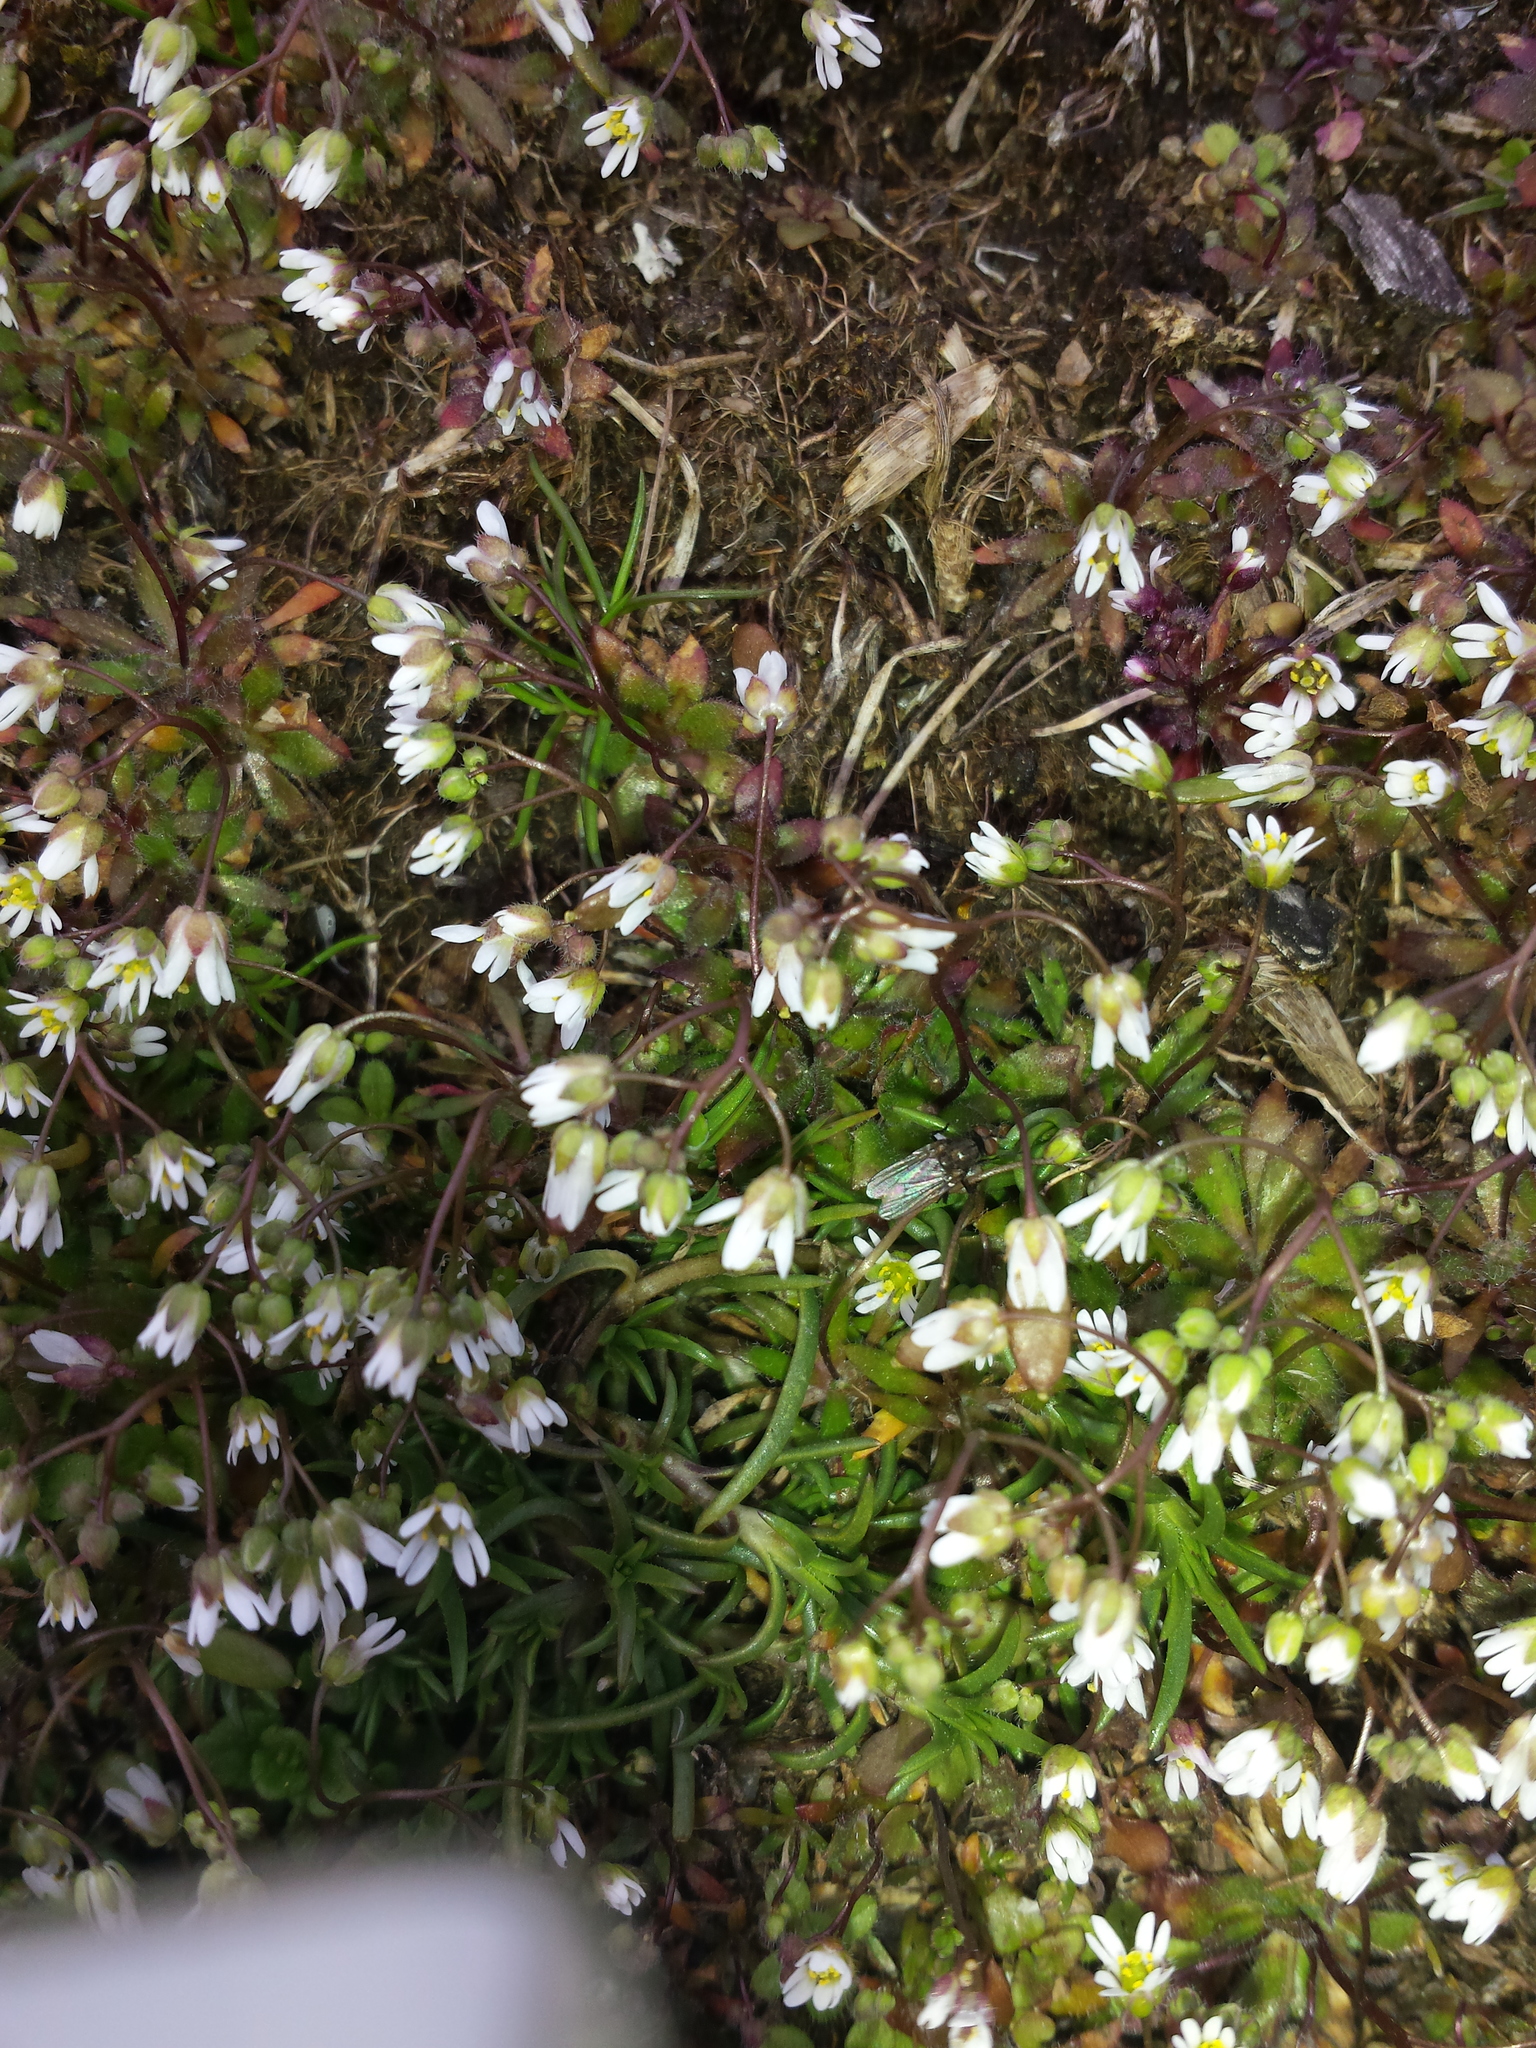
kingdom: Plantae
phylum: Tracheophyta
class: Magnoliopsida
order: Brassicales
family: Brassicaceae
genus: Draba
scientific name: Draba verna
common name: Spring draba
